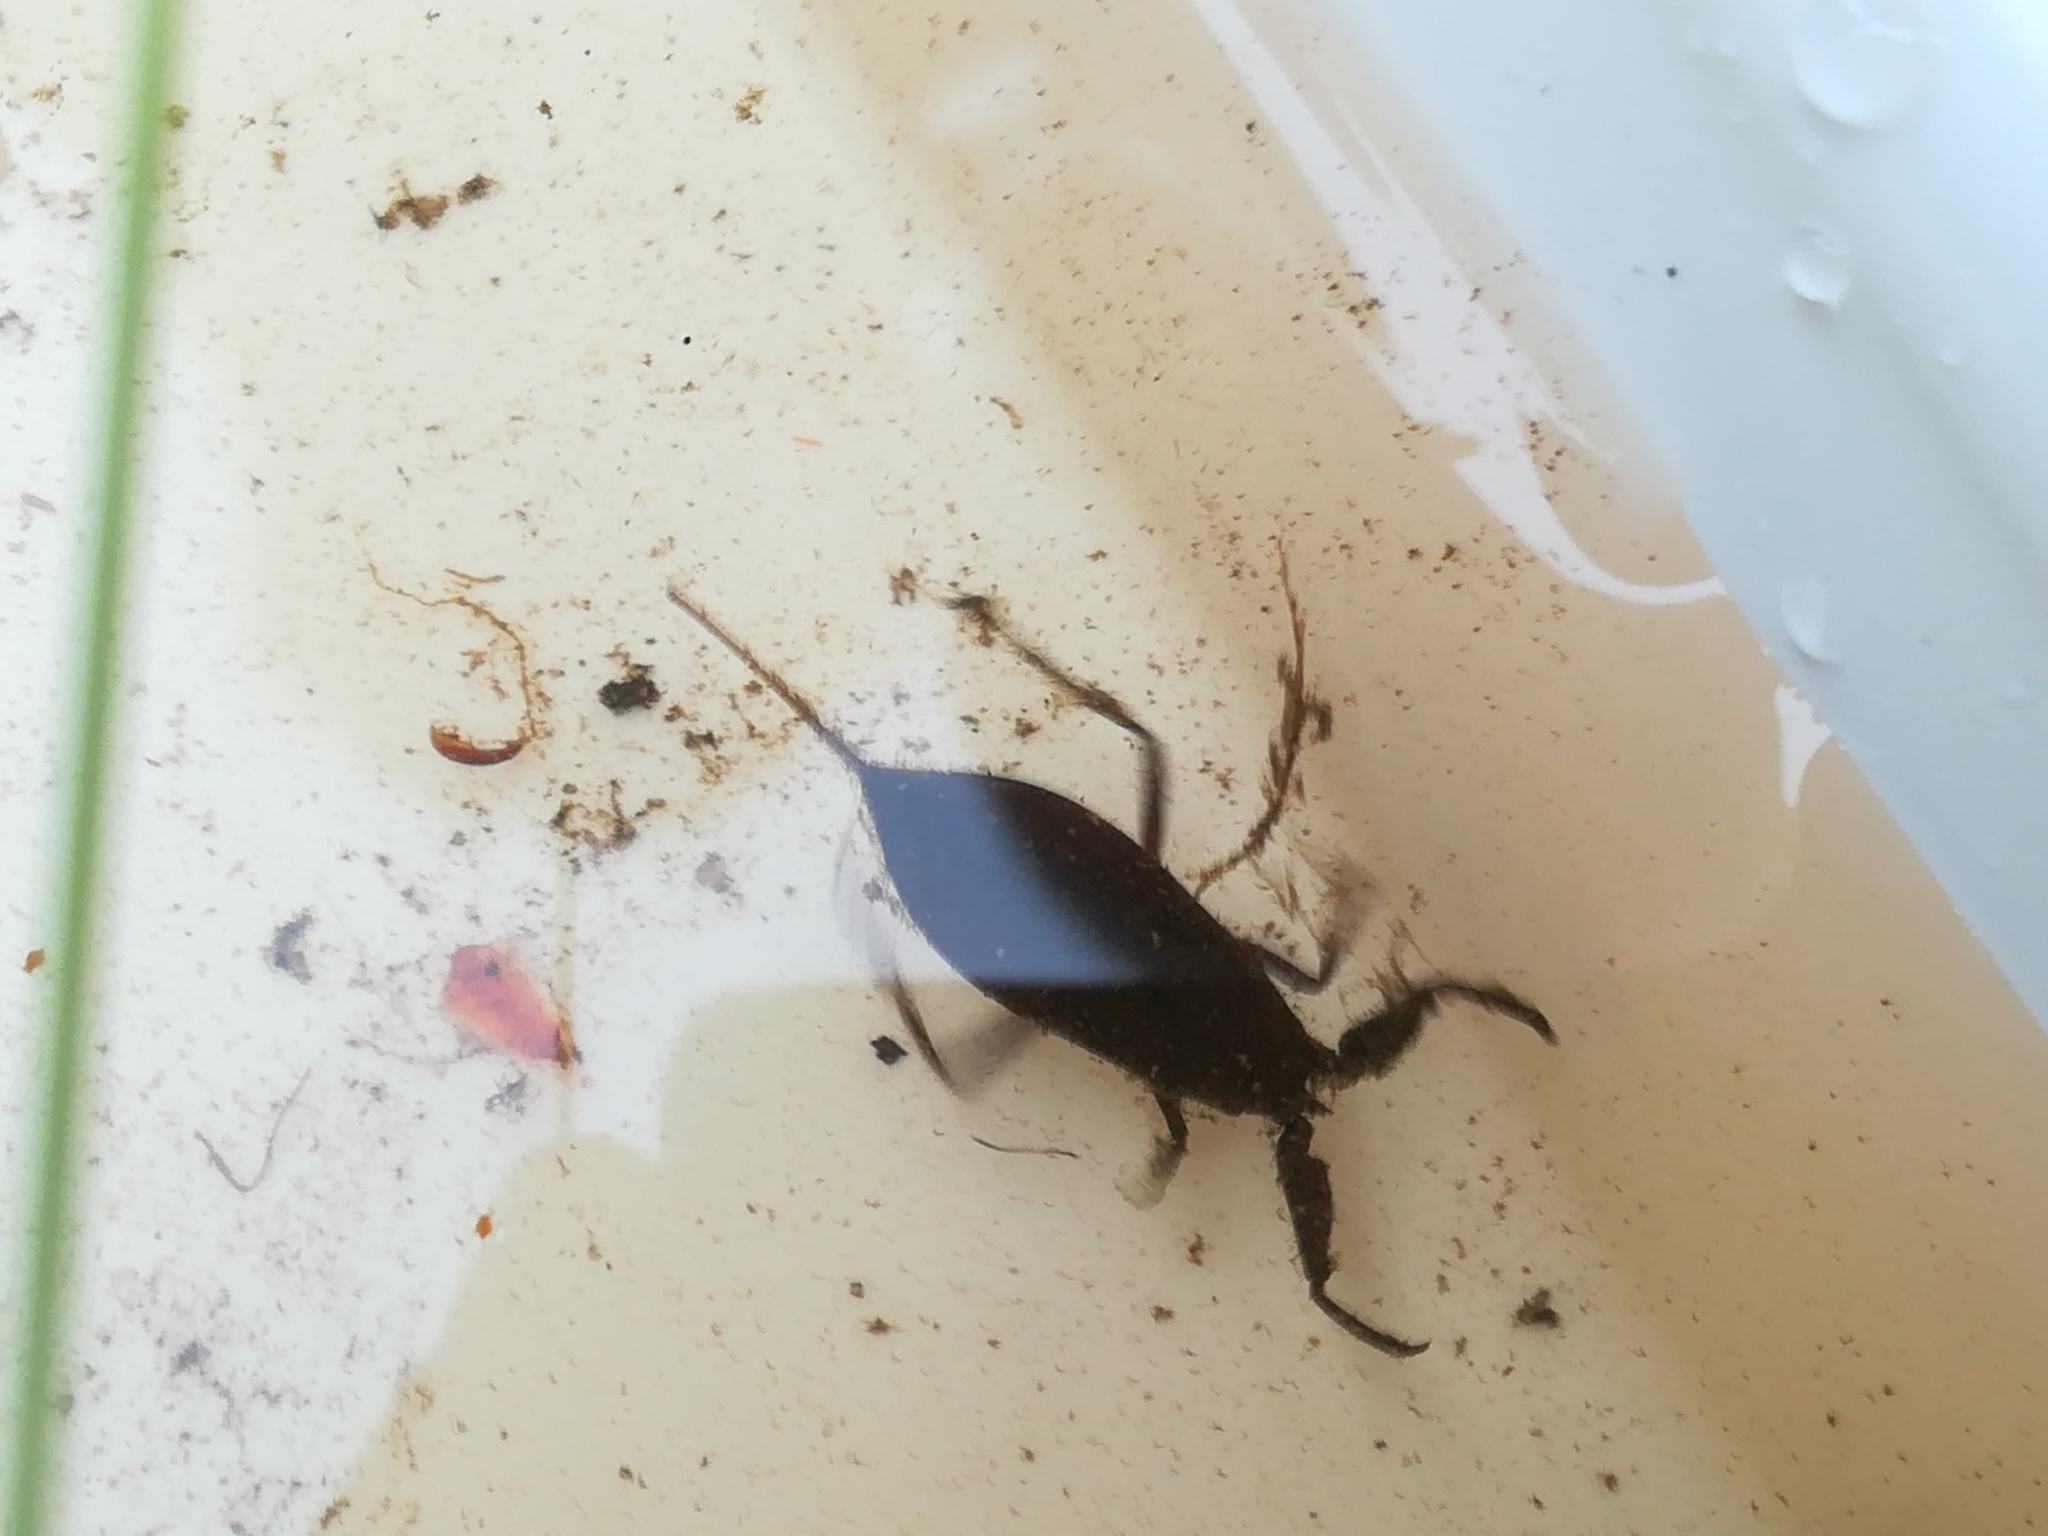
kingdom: Animalia
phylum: Arthropoda
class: Insecta
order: Hemiptera
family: Nepidae
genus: Nepa
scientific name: Nepa cinerea
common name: Water scorpion
